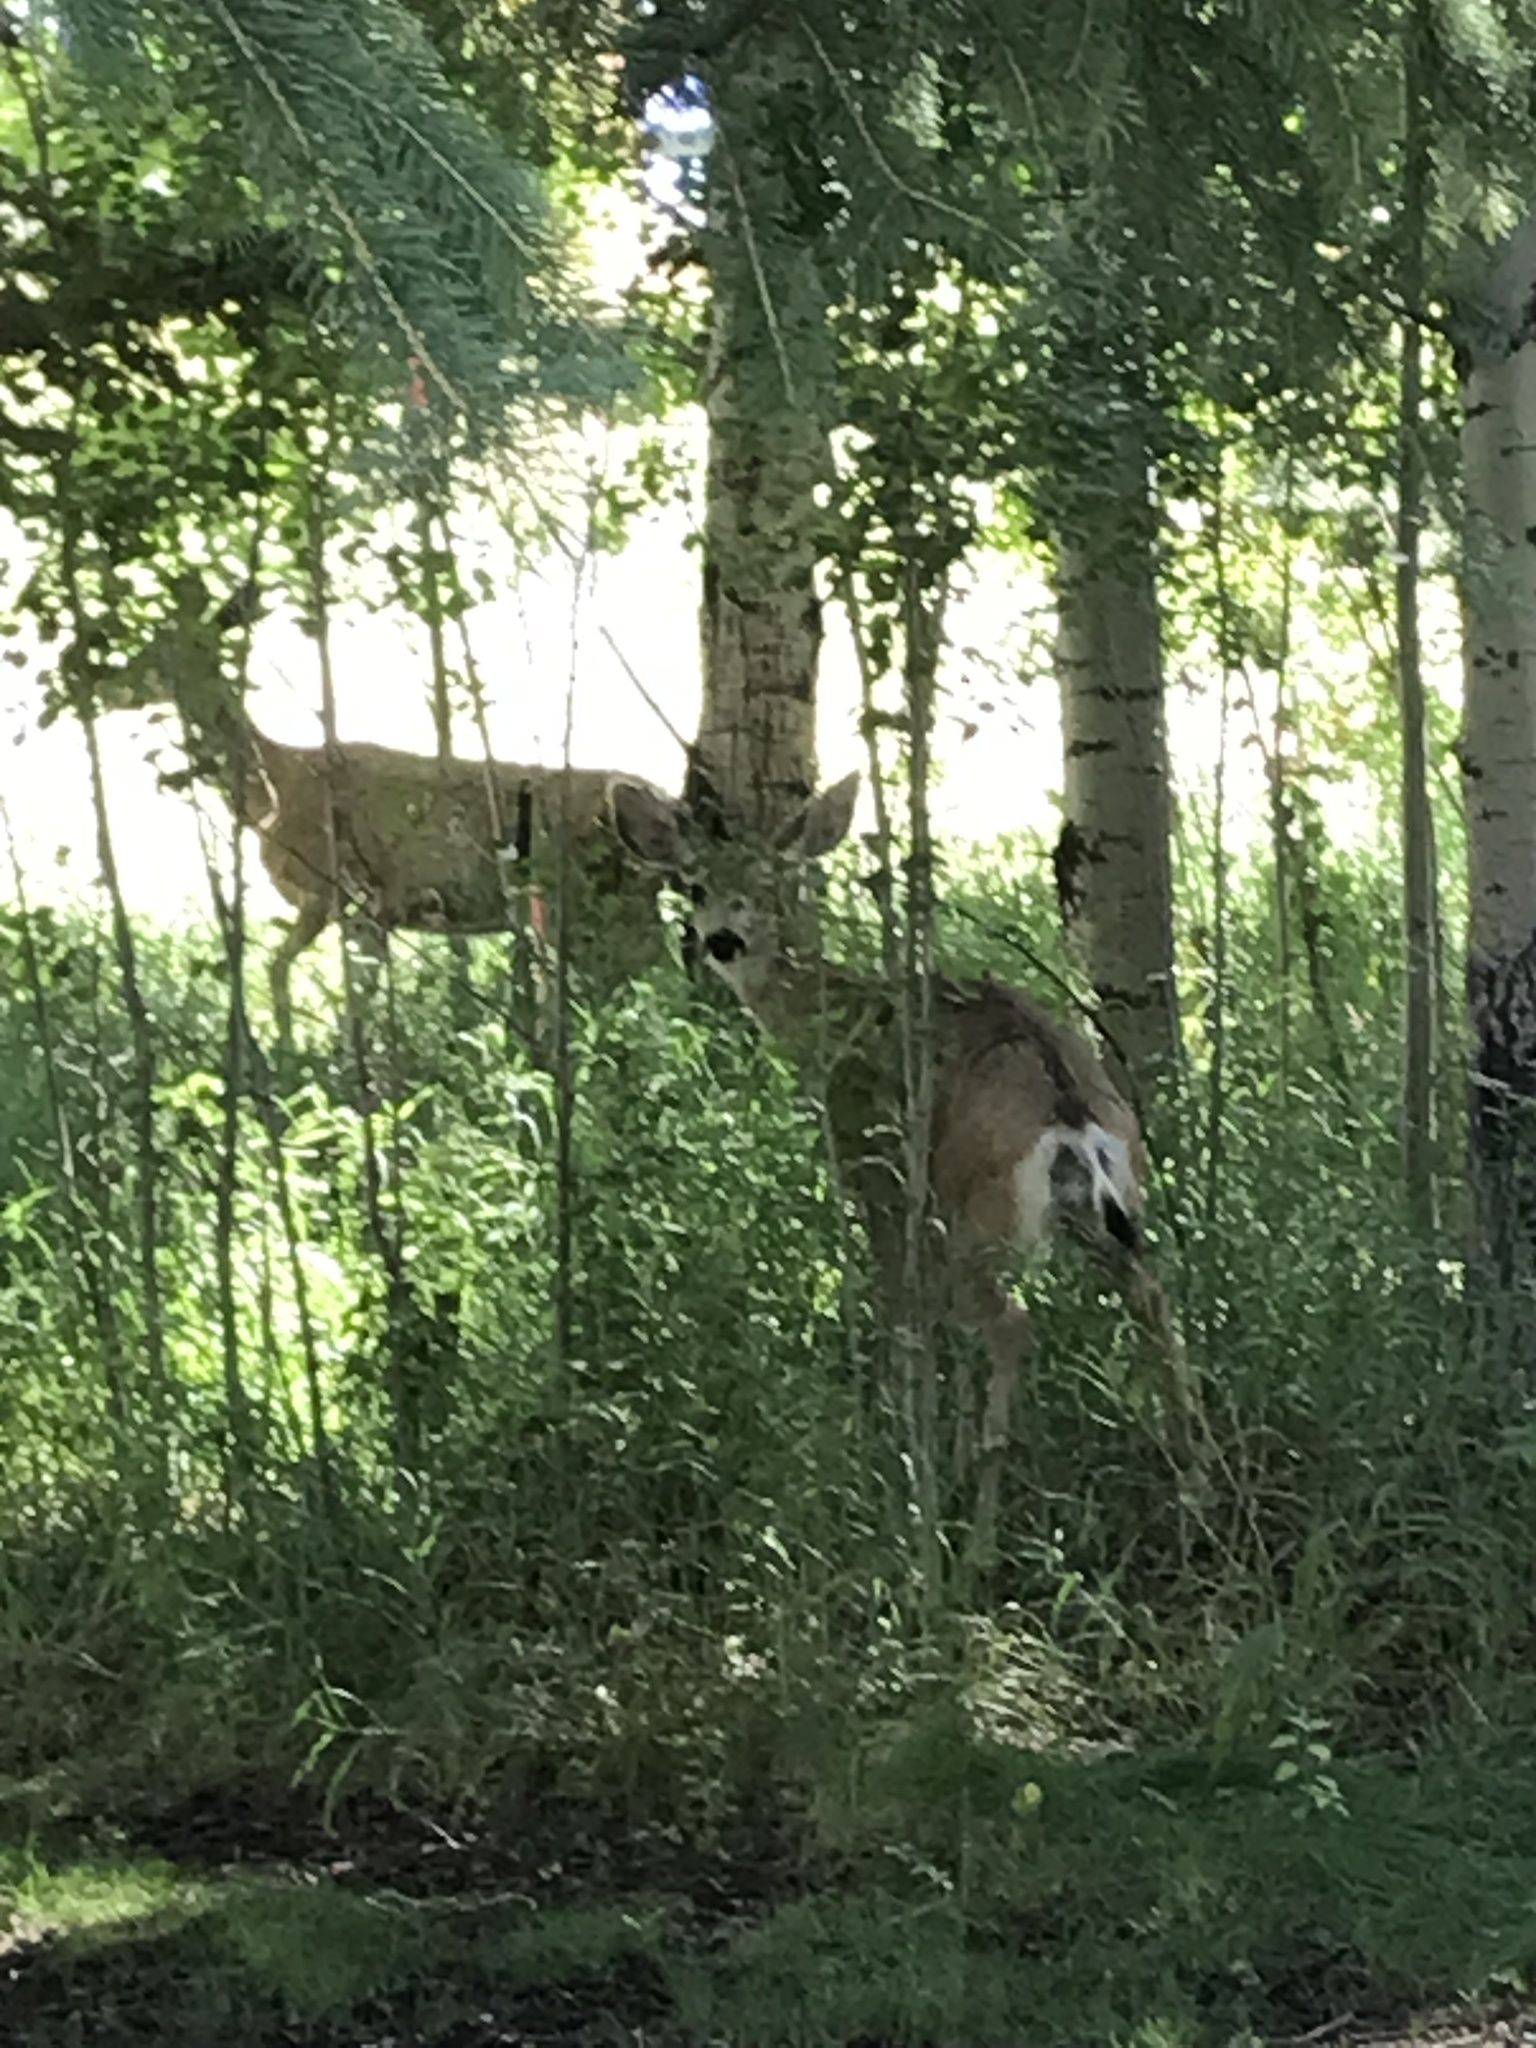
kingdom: Animalia
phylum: Chordata
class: Mammalia
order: Artiodactyla
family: Cervidae
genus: Odocoileus
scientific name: Odocoileus hemionus
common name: Mule deer
